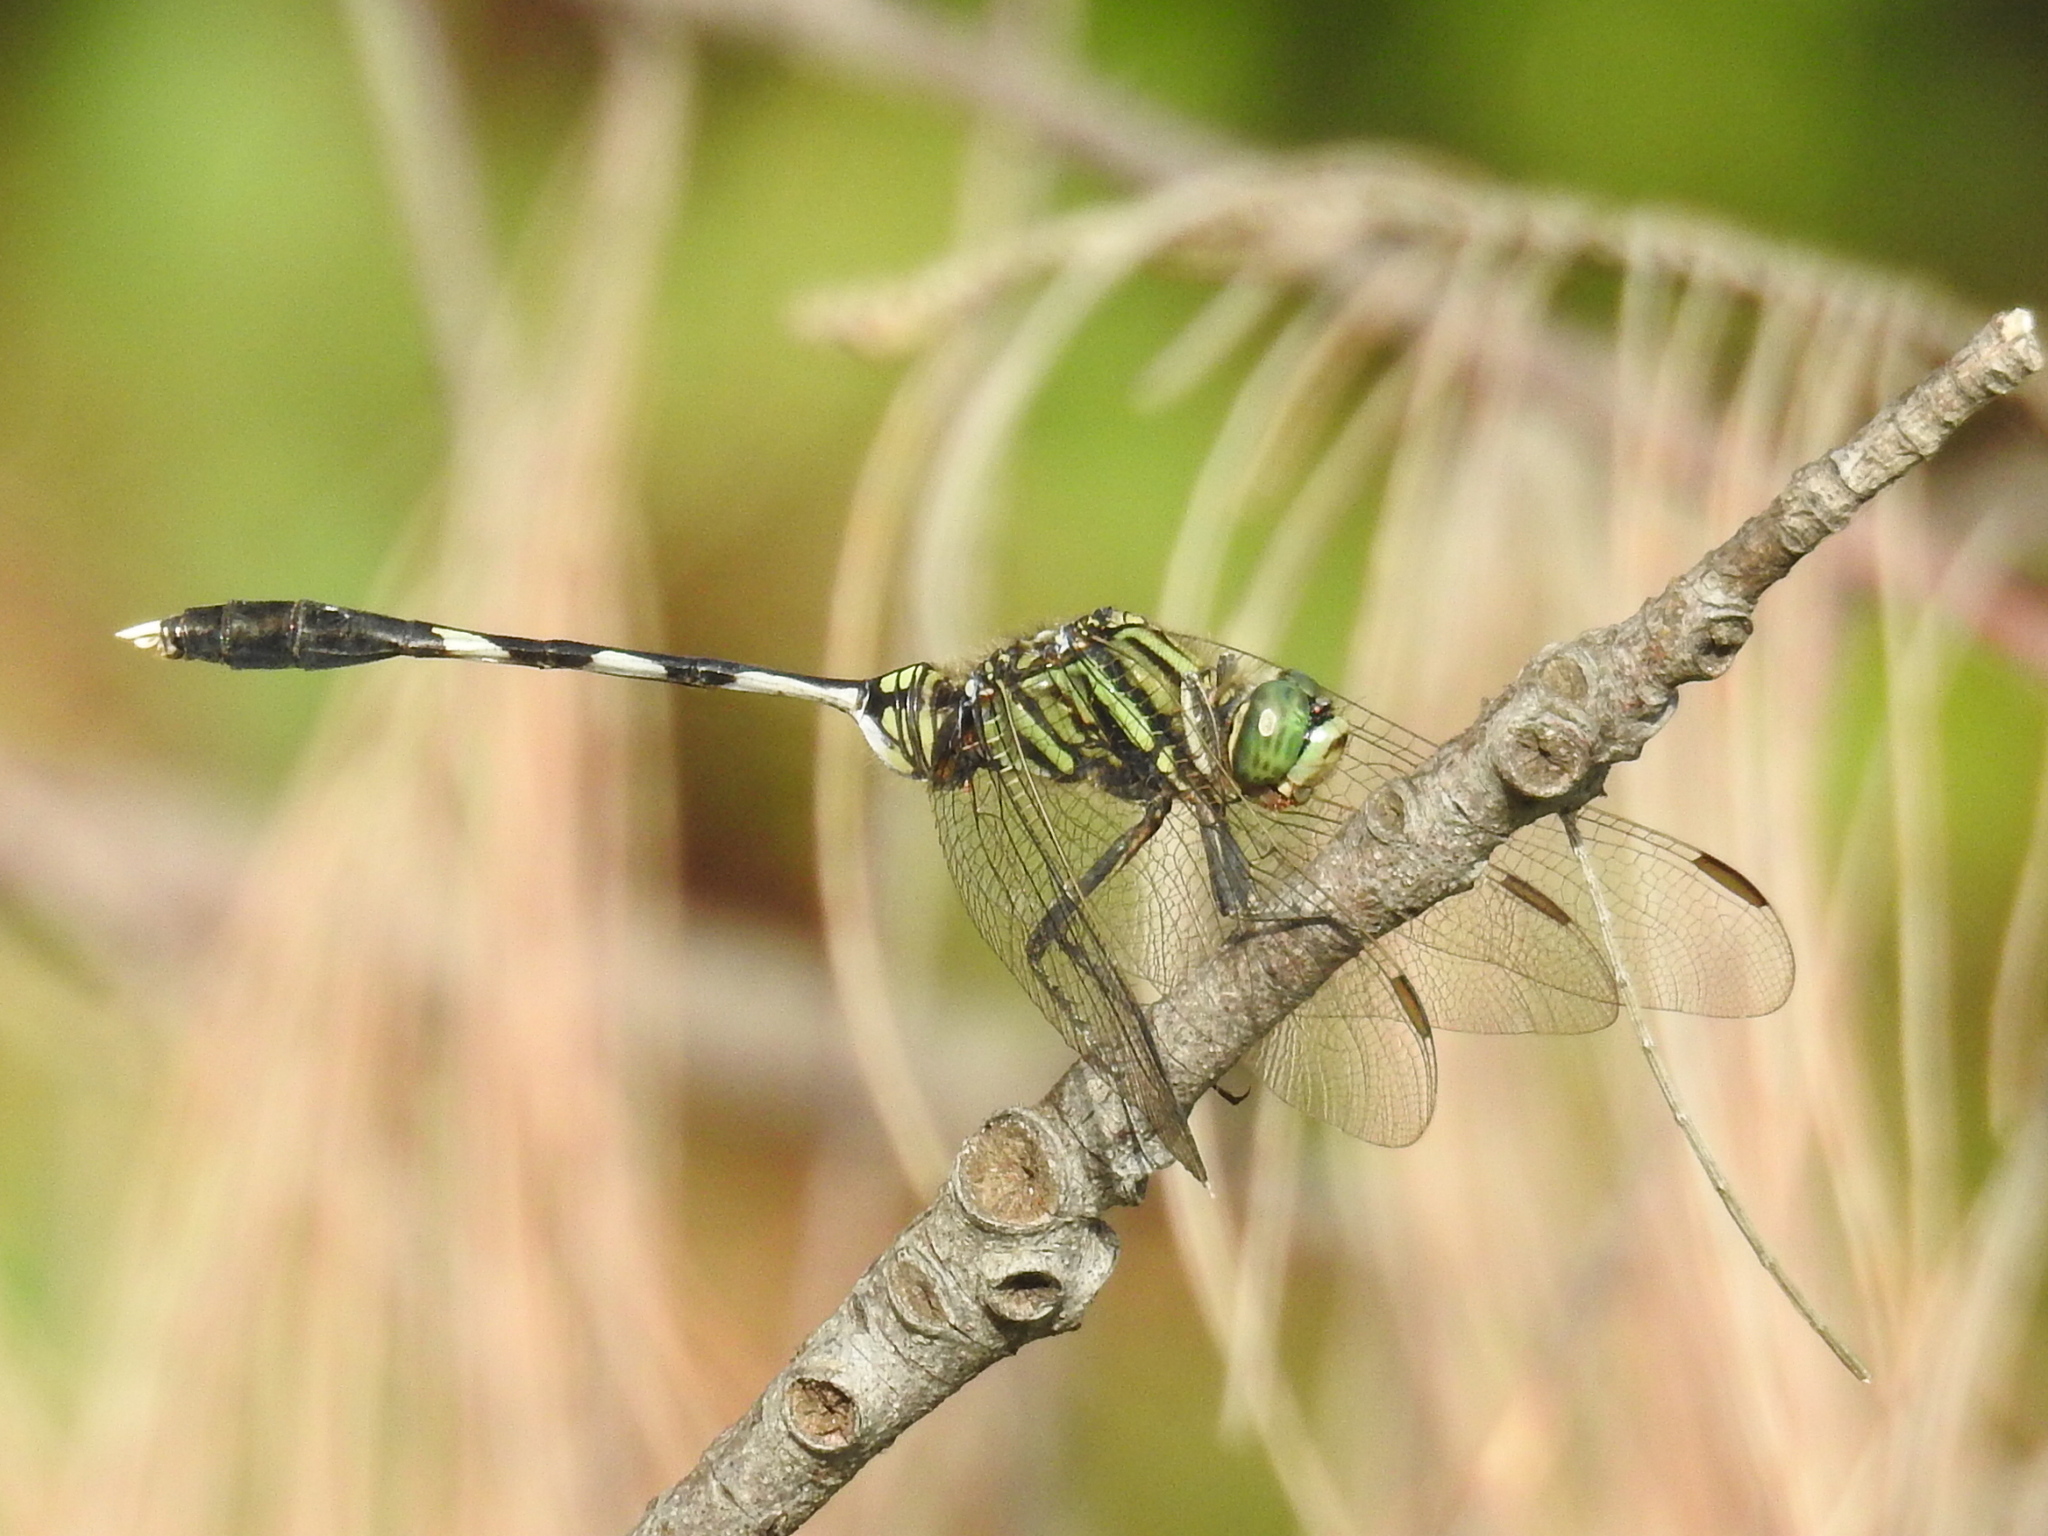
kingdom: Animalia
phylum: Arthropoda
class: Insecta
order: Odonata
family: Libellulidae
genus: Orthetrum
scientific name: Orthetrum sabina
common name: Slender skimmer
